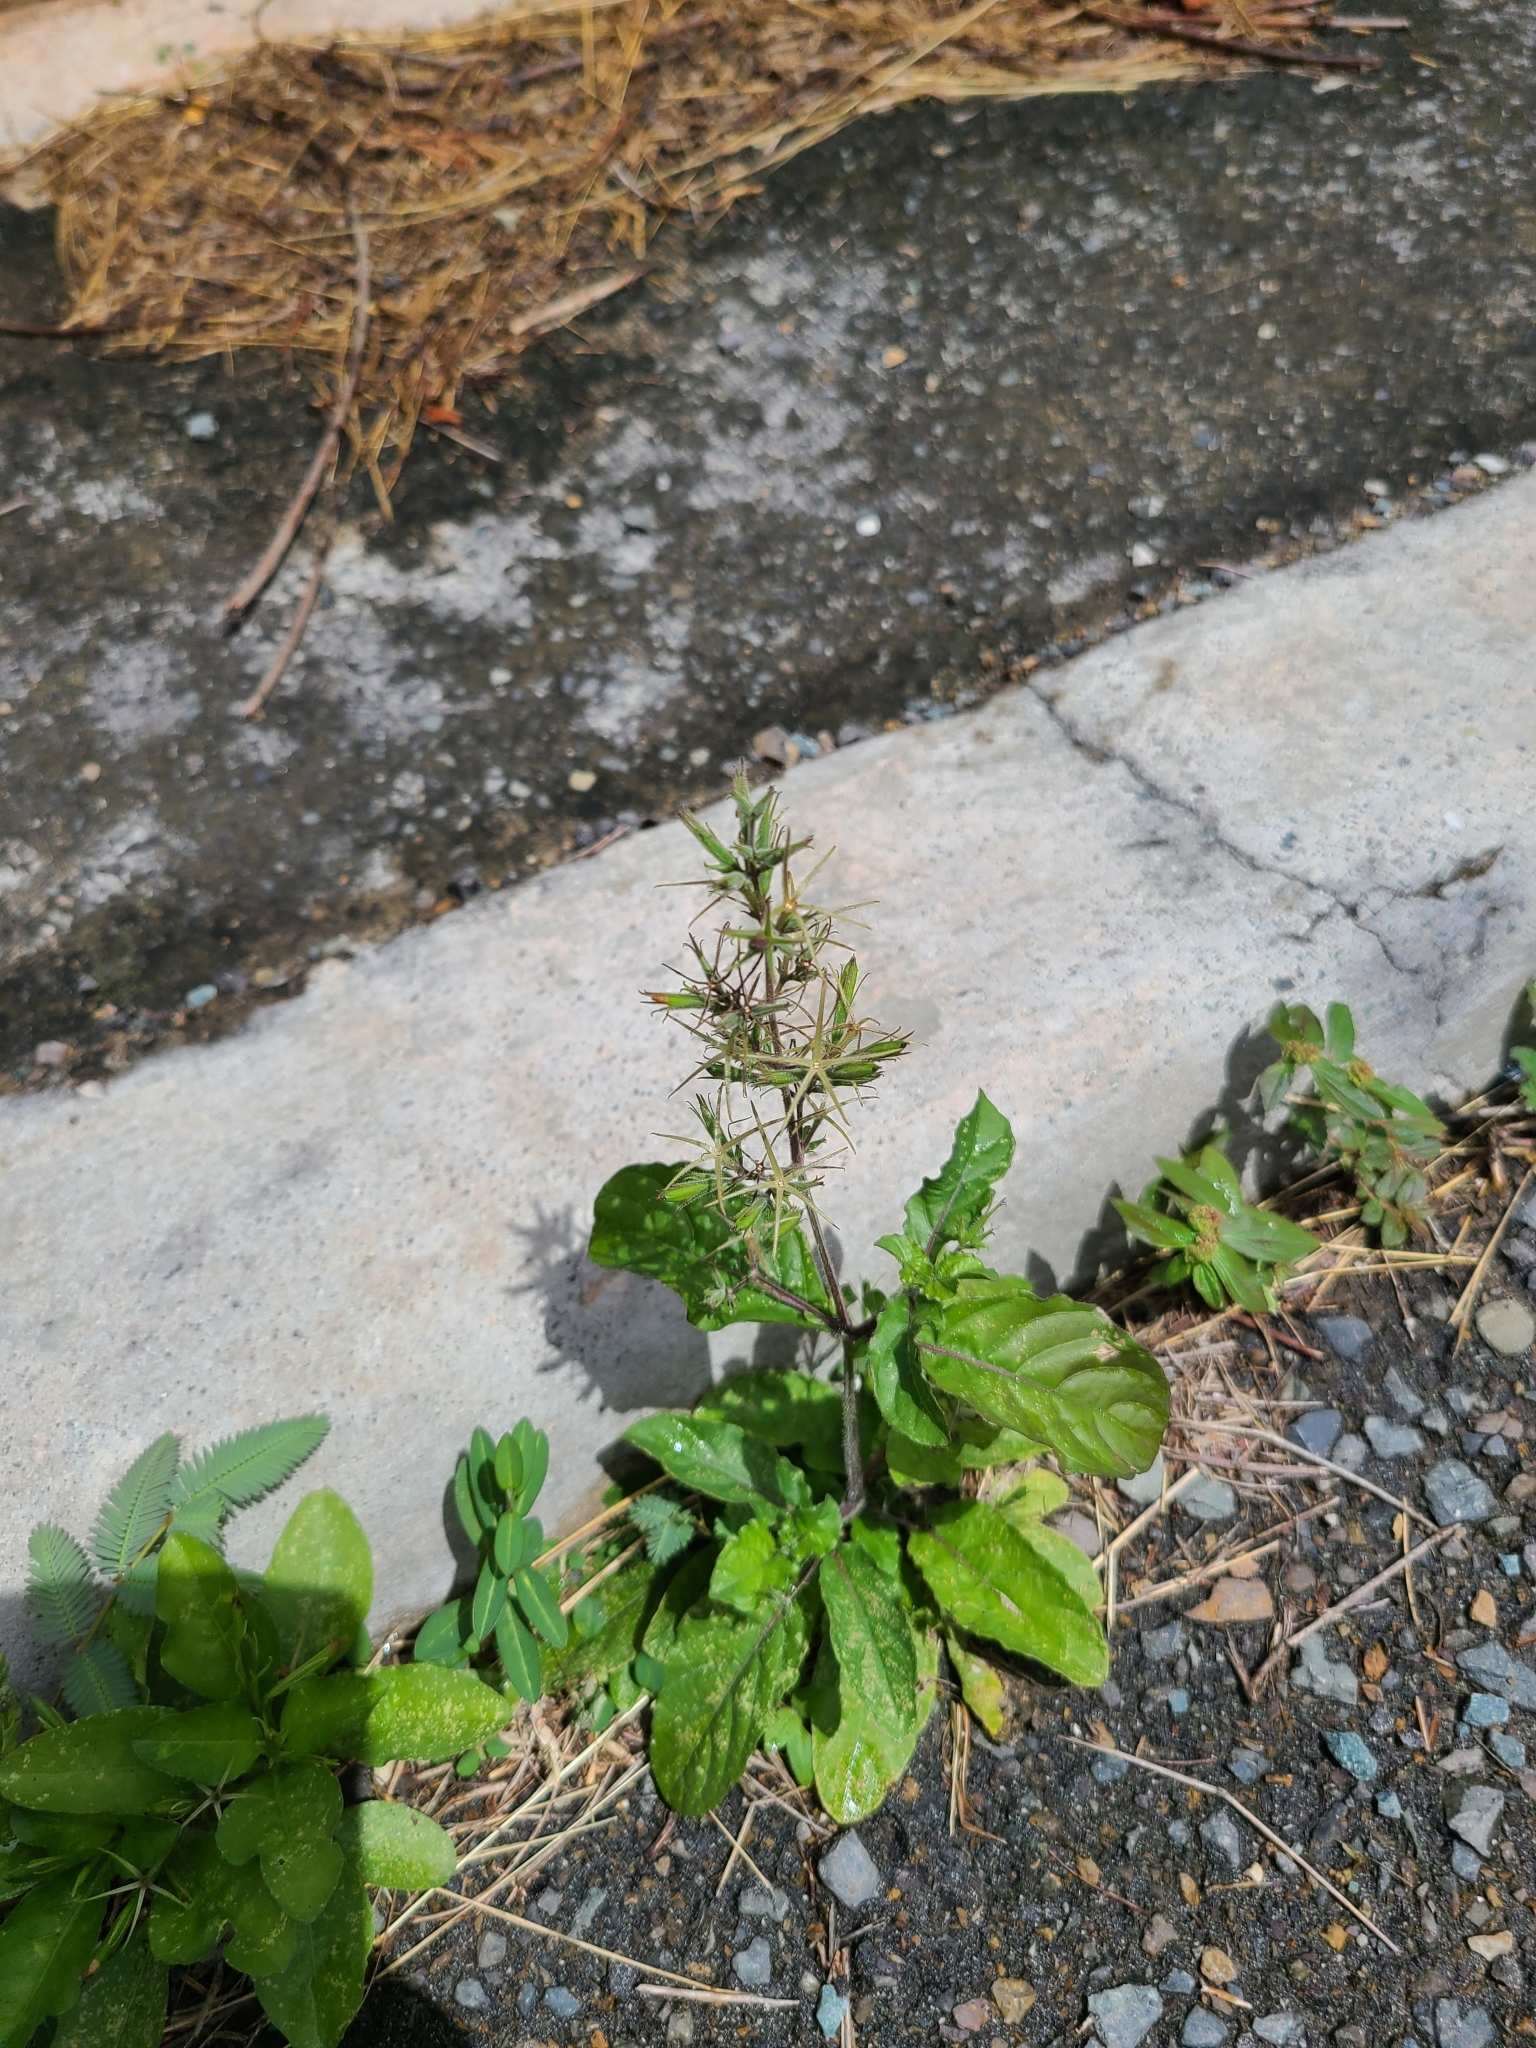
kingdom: Plantae
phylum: Tracheophyta
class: Magnoliopsida
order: Lamiales
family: Acanthaceae
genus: Ruellia
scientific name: Ruellia ciliatiflora
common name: Hairyflower wild petunia
